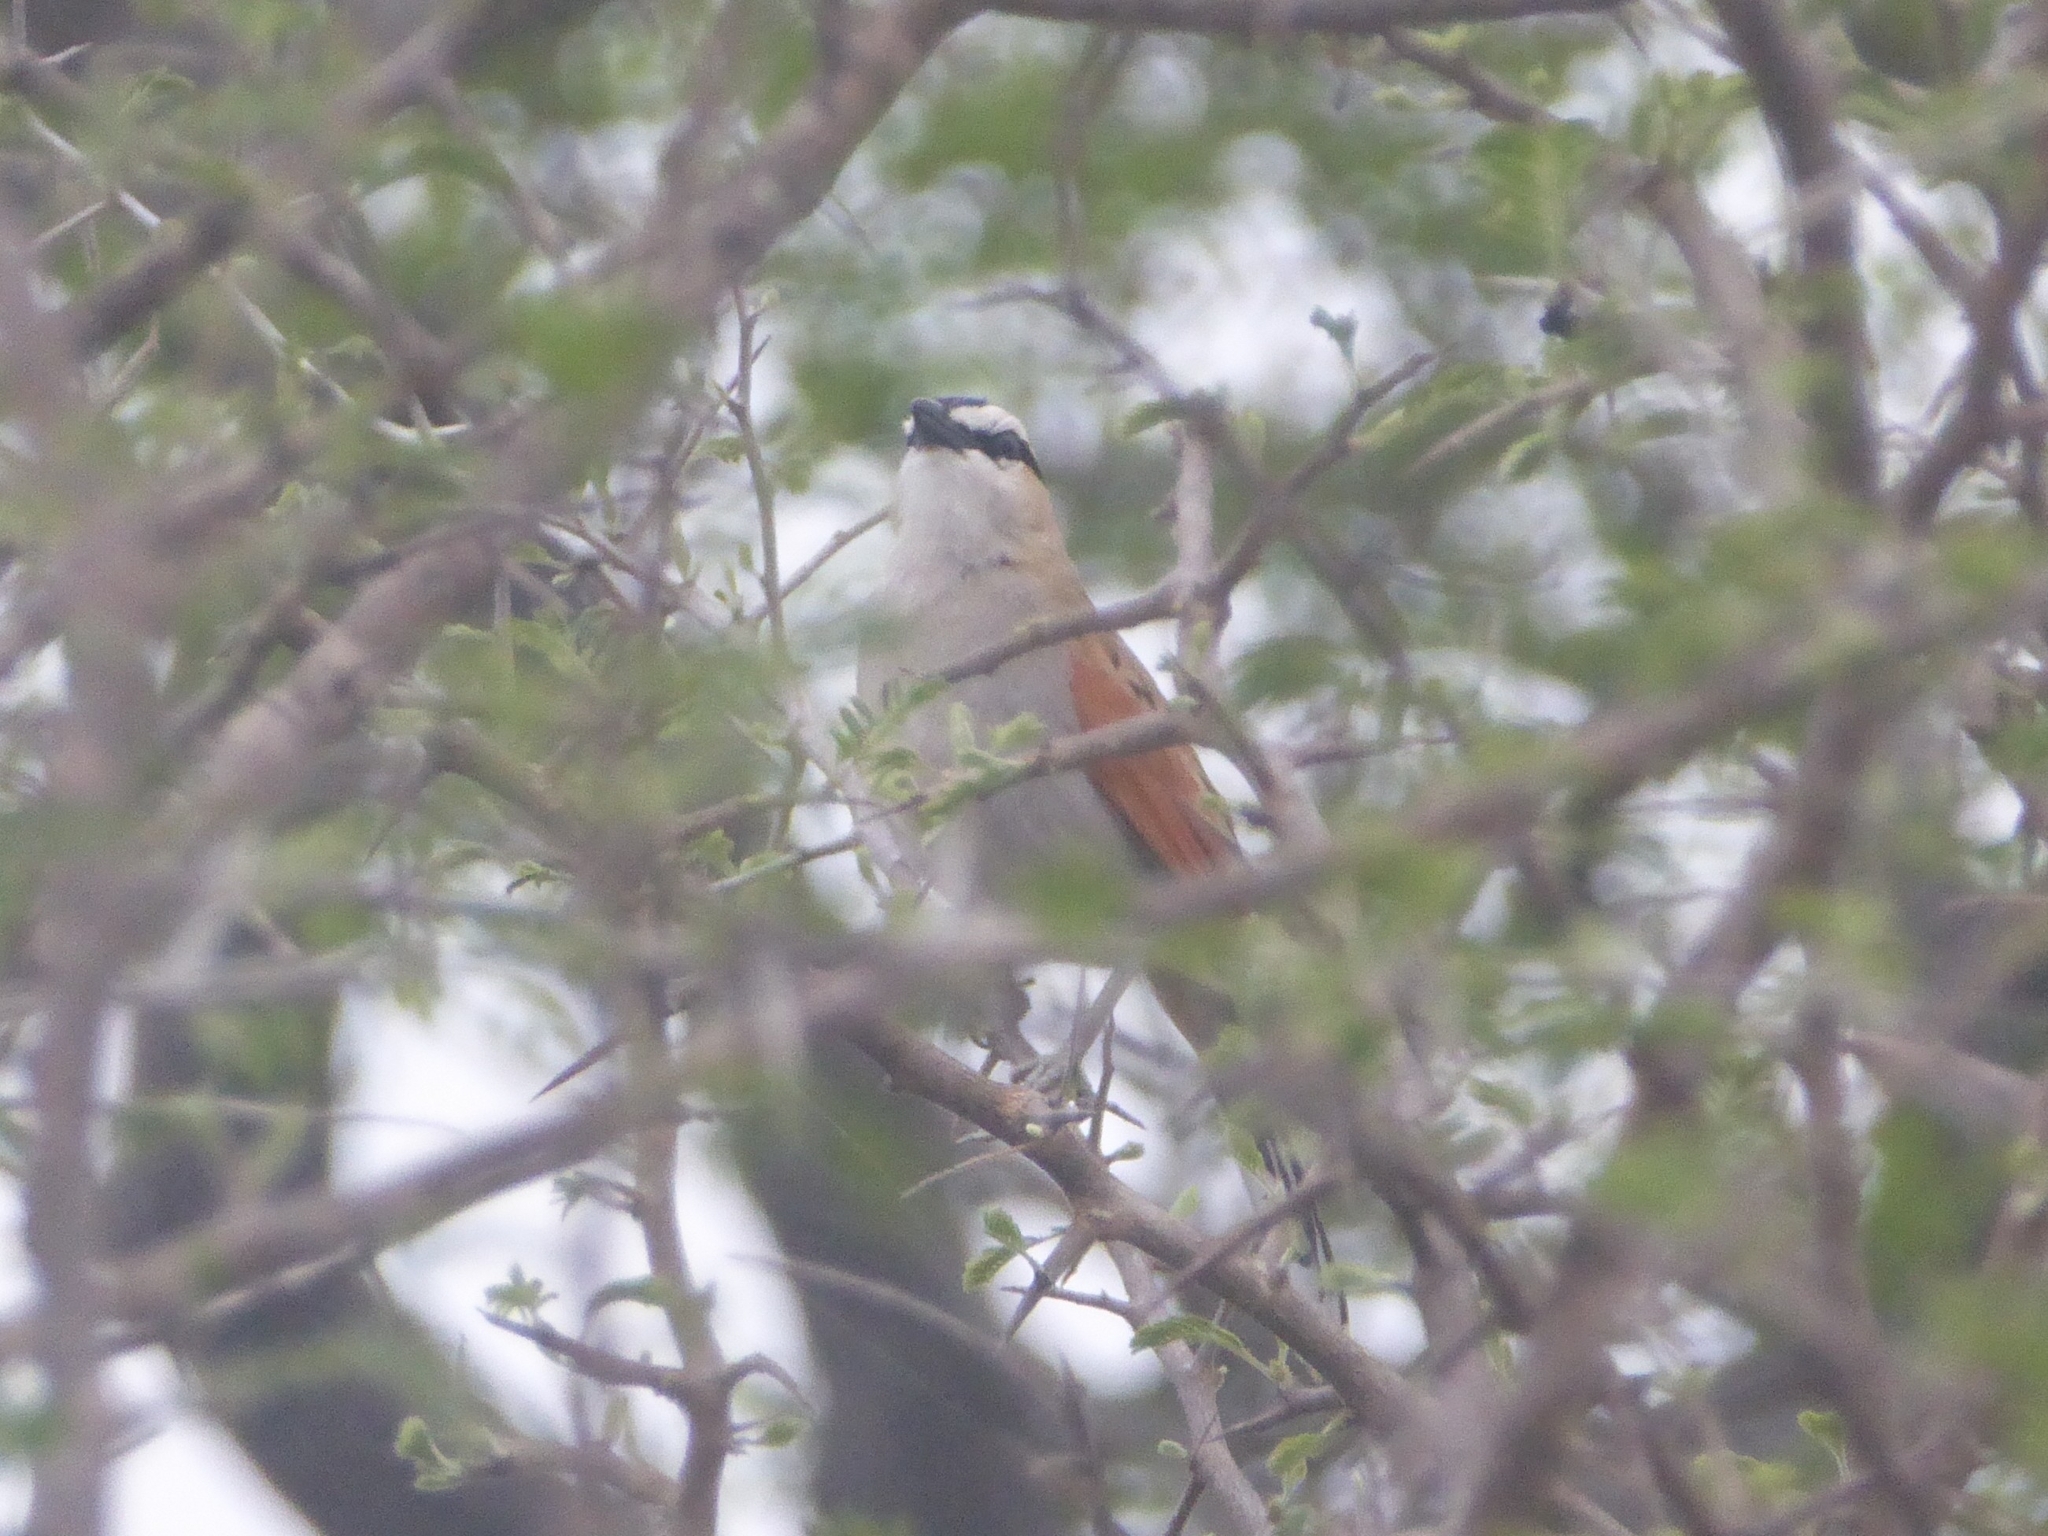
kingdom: Animalia
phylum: Chordata
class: Aves
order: Passeriformes
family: Malaconotidae
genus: Tchagra
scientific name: Tchagra senegalus
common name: Black-crowned tchagra
